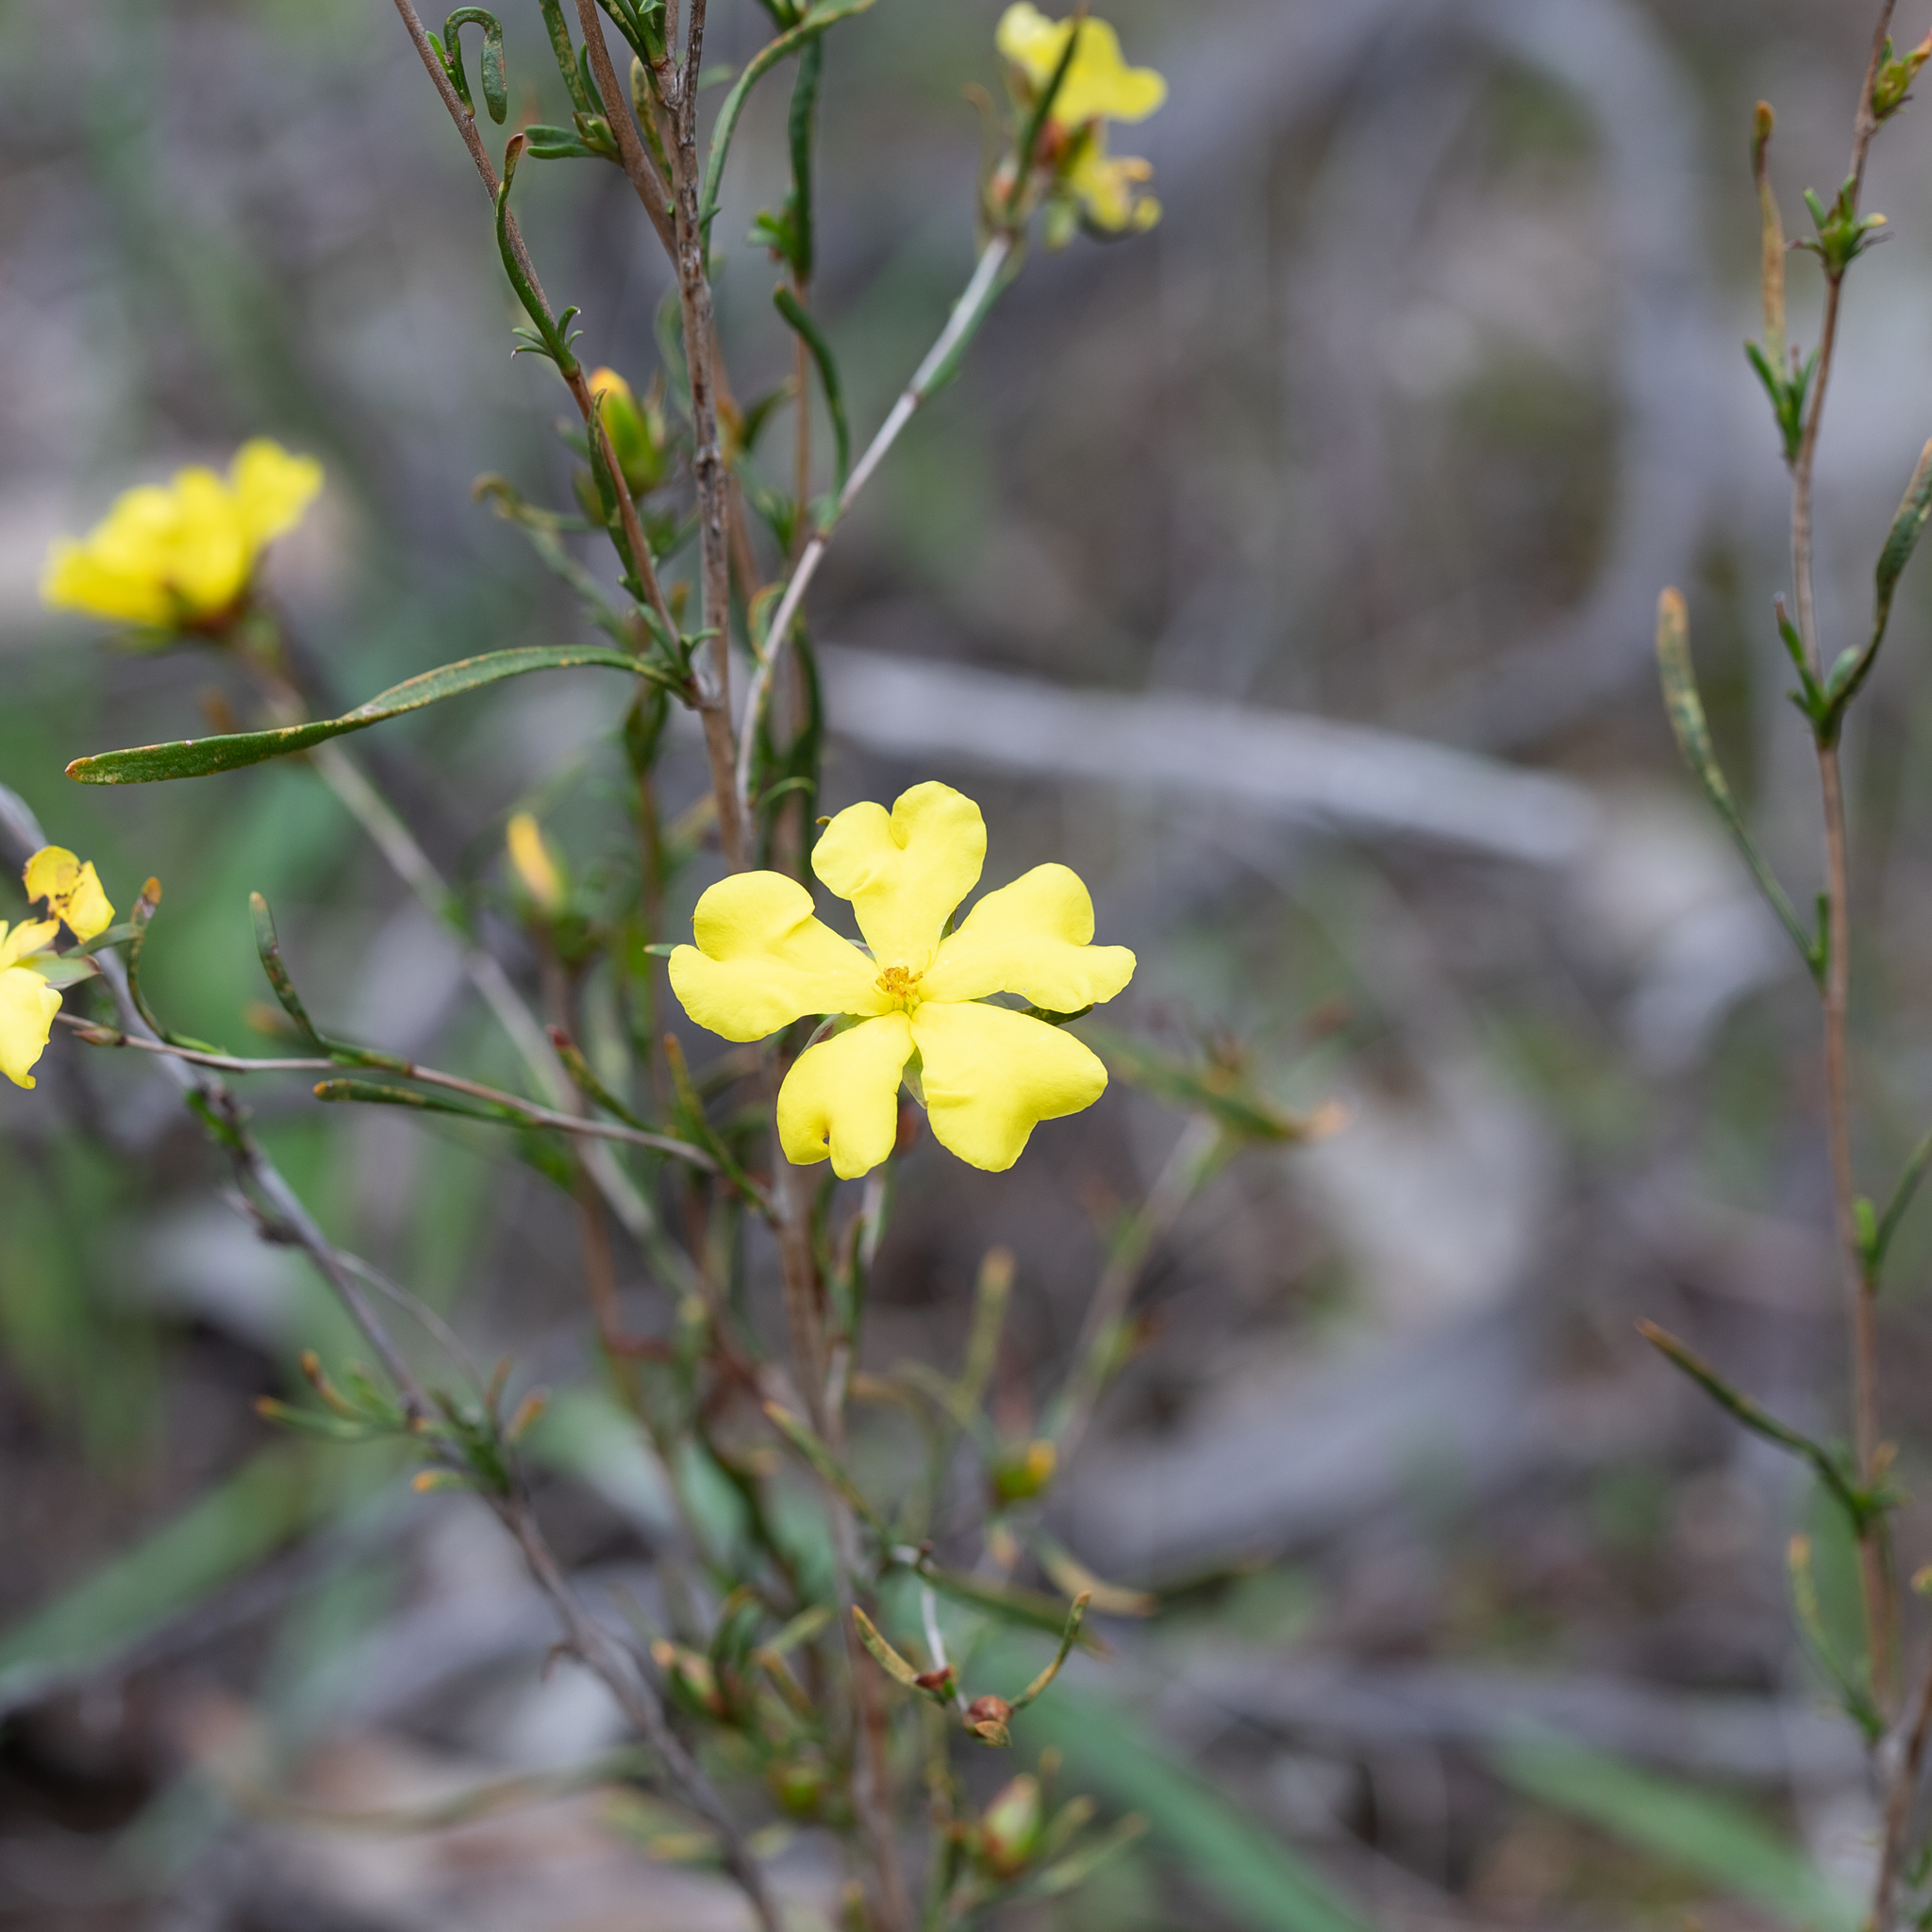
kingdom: Plantae
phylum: Tracheophyta
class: Magnoliopsida
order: Dilleniales
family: Dilleniaceae
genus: Hibbertia
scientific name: Hibbertia virgata
